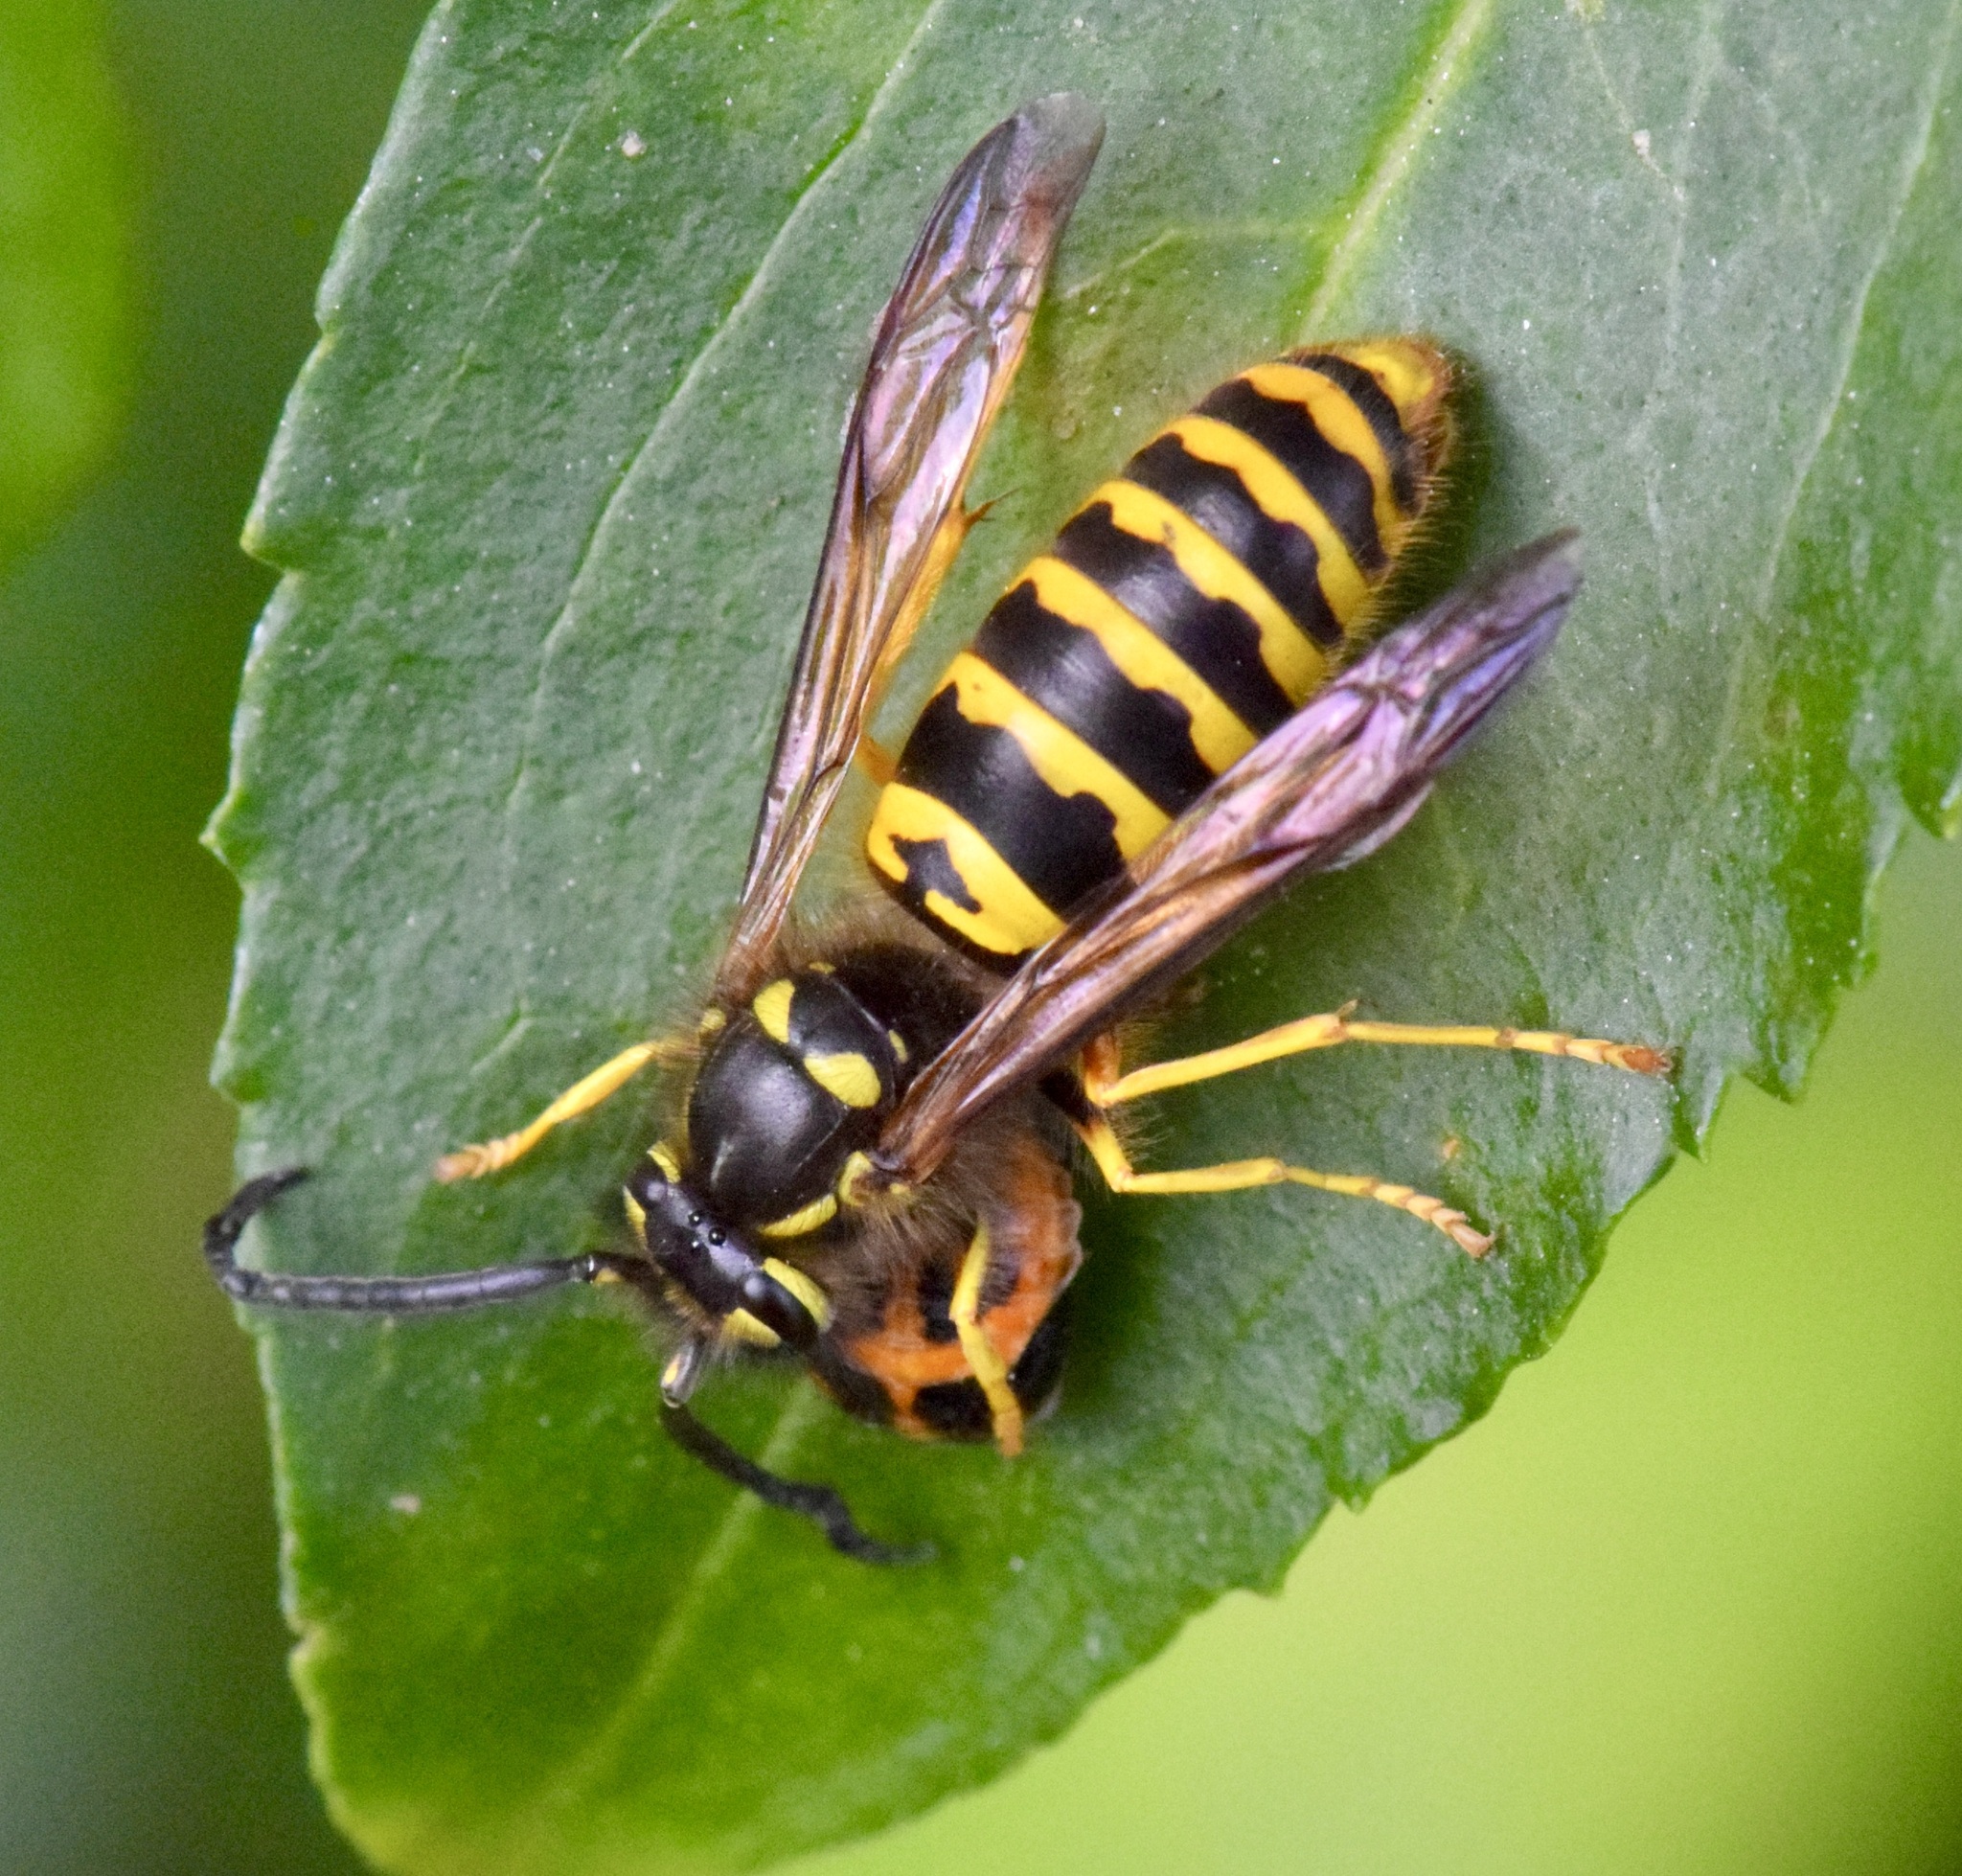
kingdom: Animalia
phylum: Arthropoda
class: Insecta
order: Hymenoptera
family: Vespidae
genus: Vespula
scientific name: Vespula maculifrons
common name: Eastern yellowjacket
